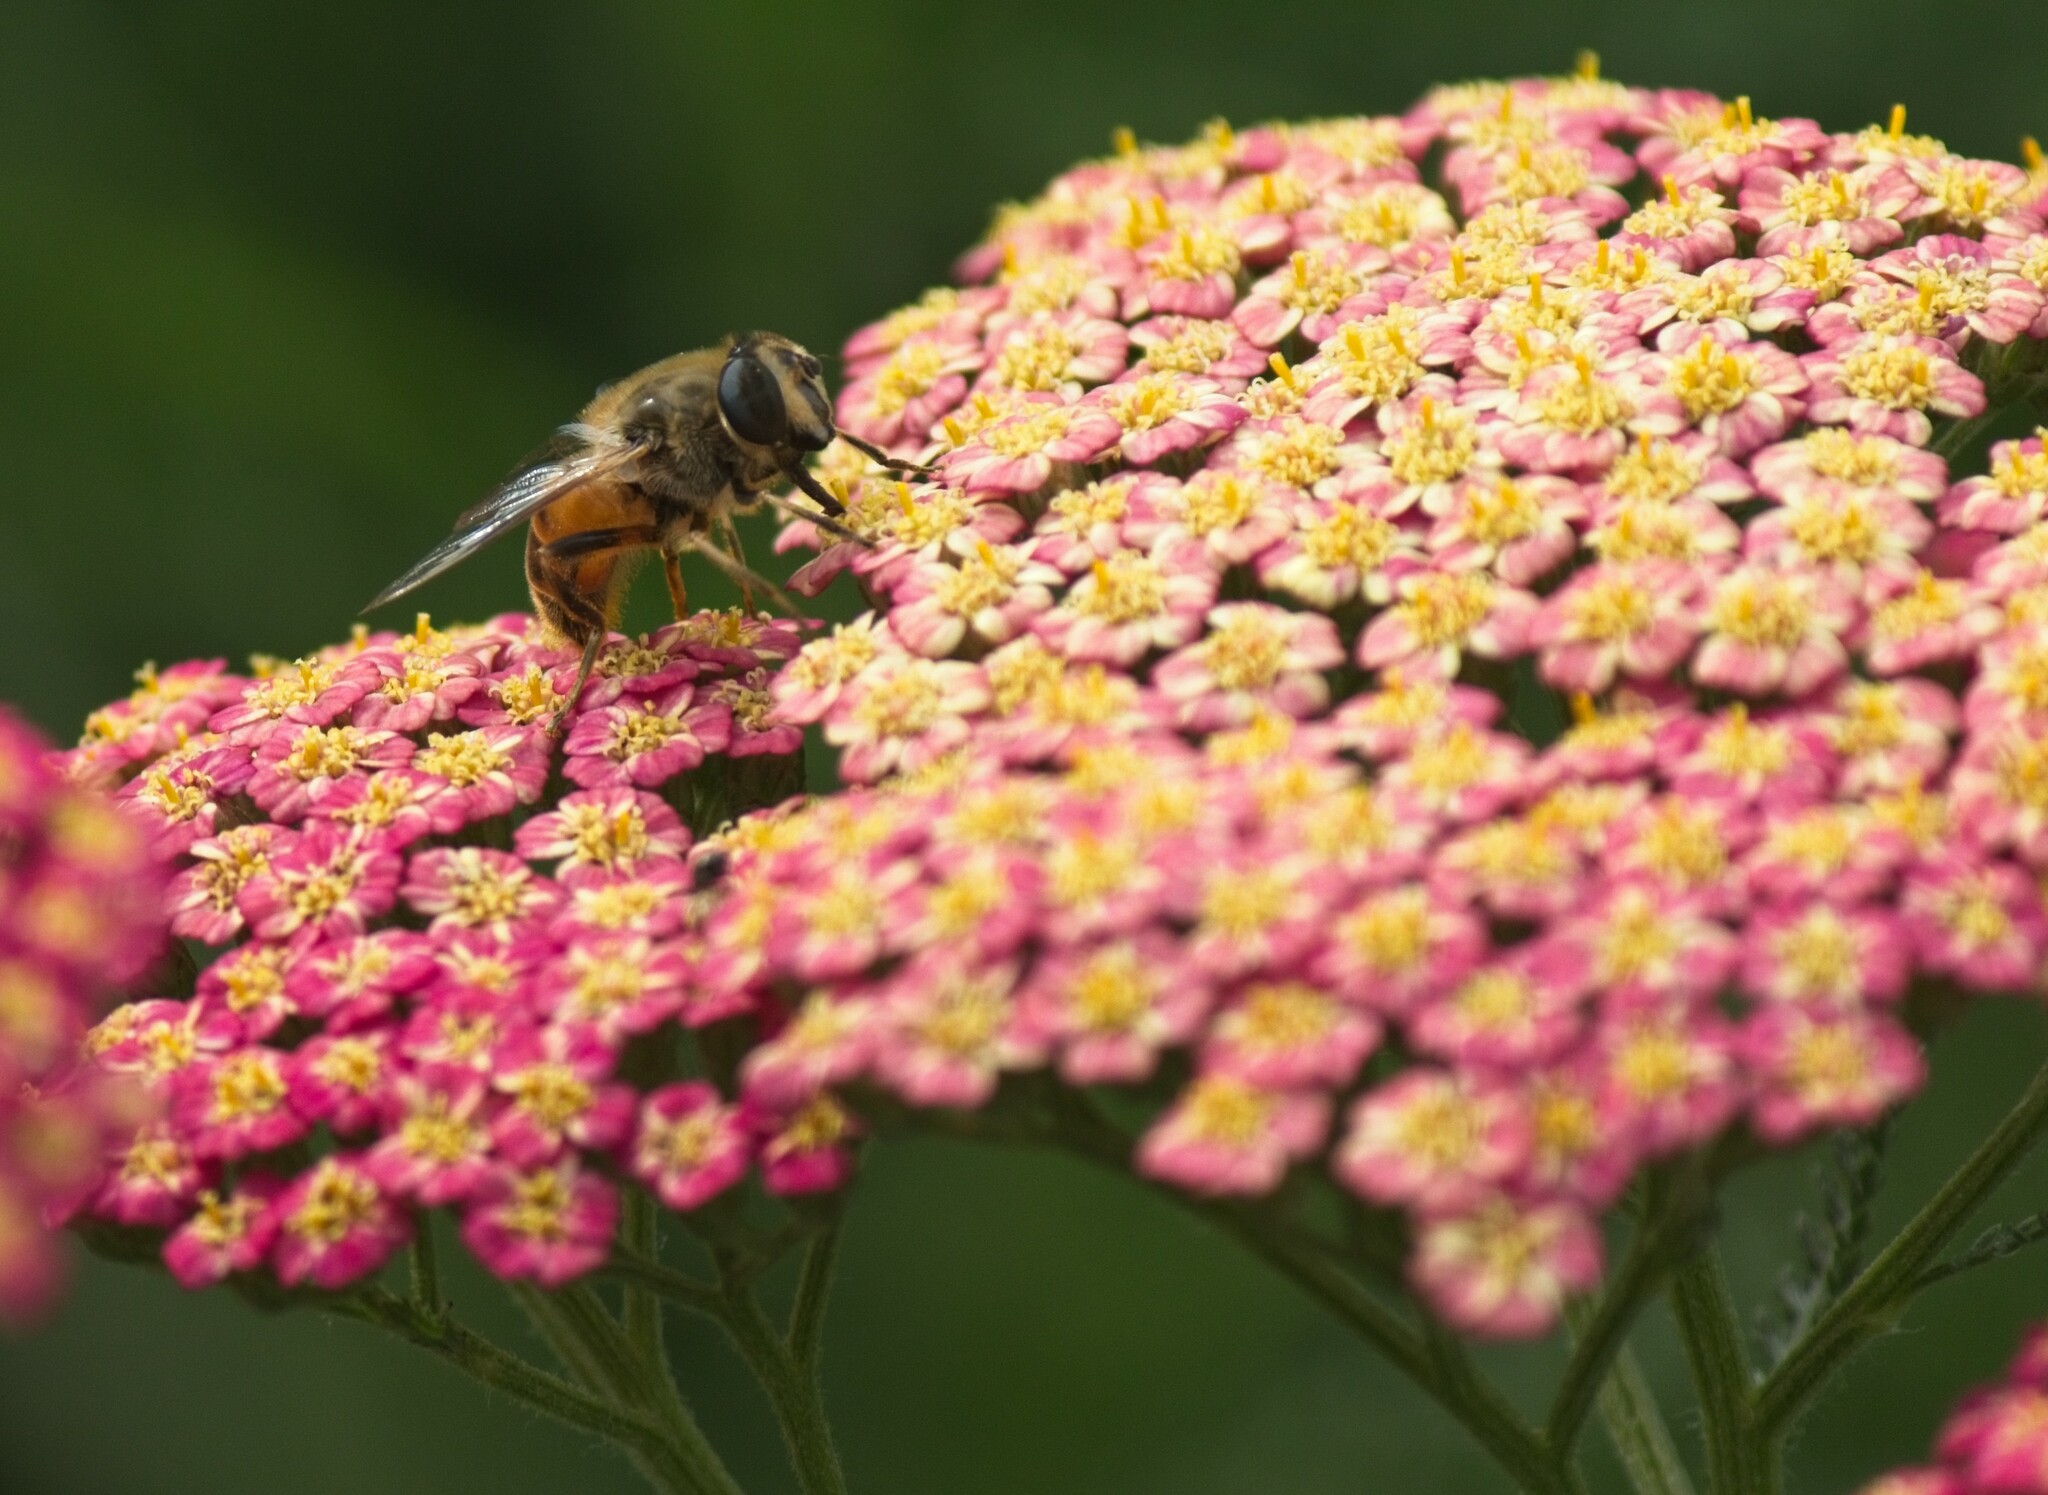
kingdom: Animalia
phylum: Arthropoda
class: Insecta
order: Diptera
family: Syrphidae
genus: Eristalis
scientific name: Eristalis tenax
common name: Drone fly
